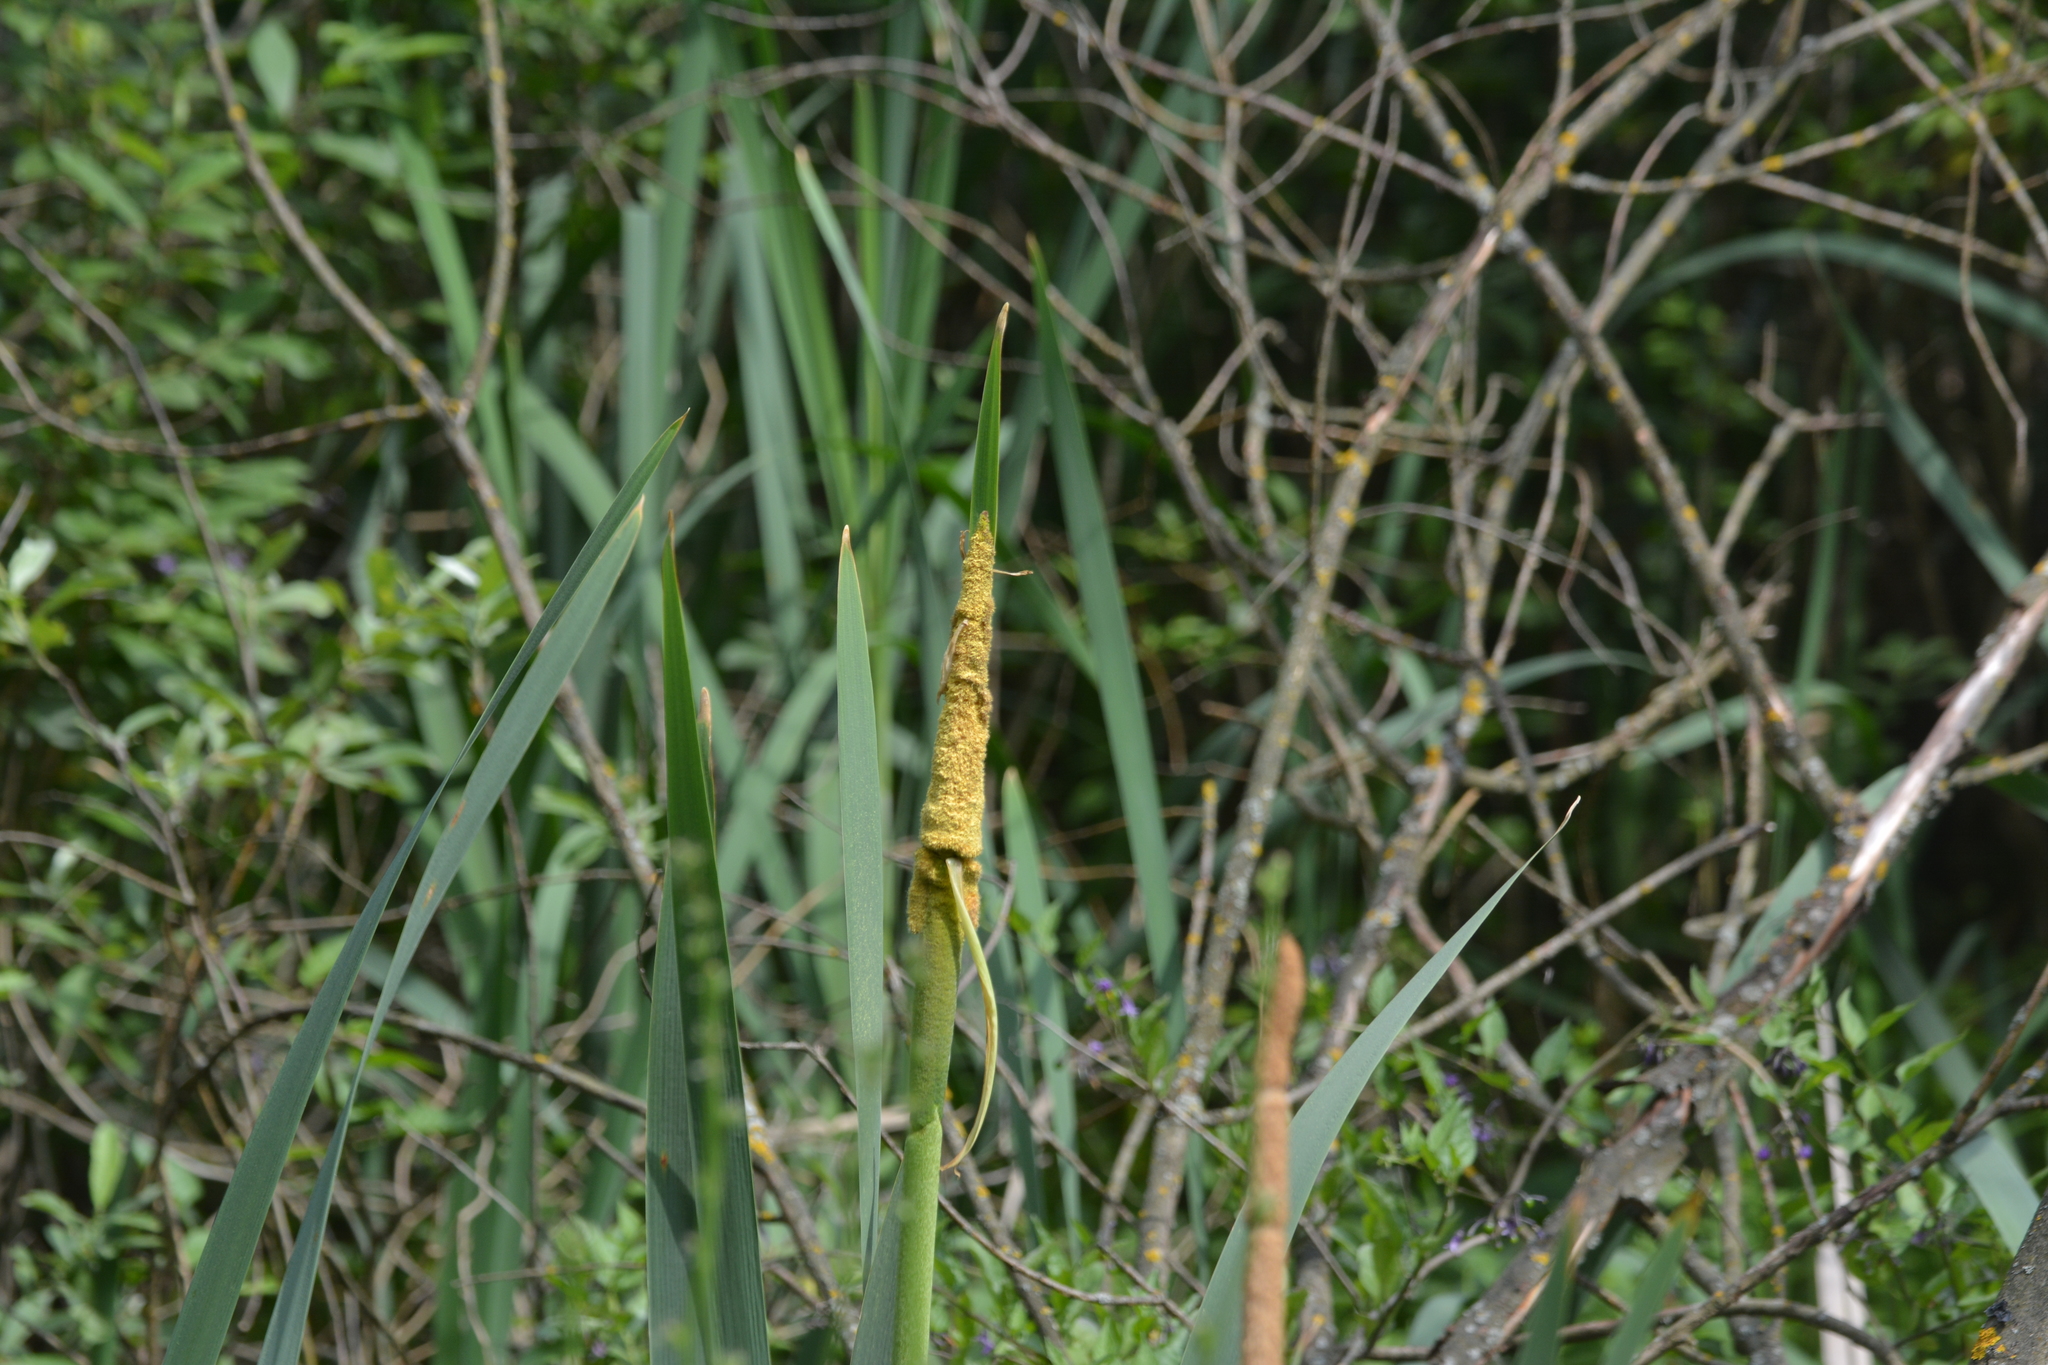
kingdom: Plantae
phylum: Tracheophyta
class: Liliopsida
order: Poales
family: Typhaceae
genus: Typha
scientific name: Typha latifolia
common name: Broadleaf cattail
